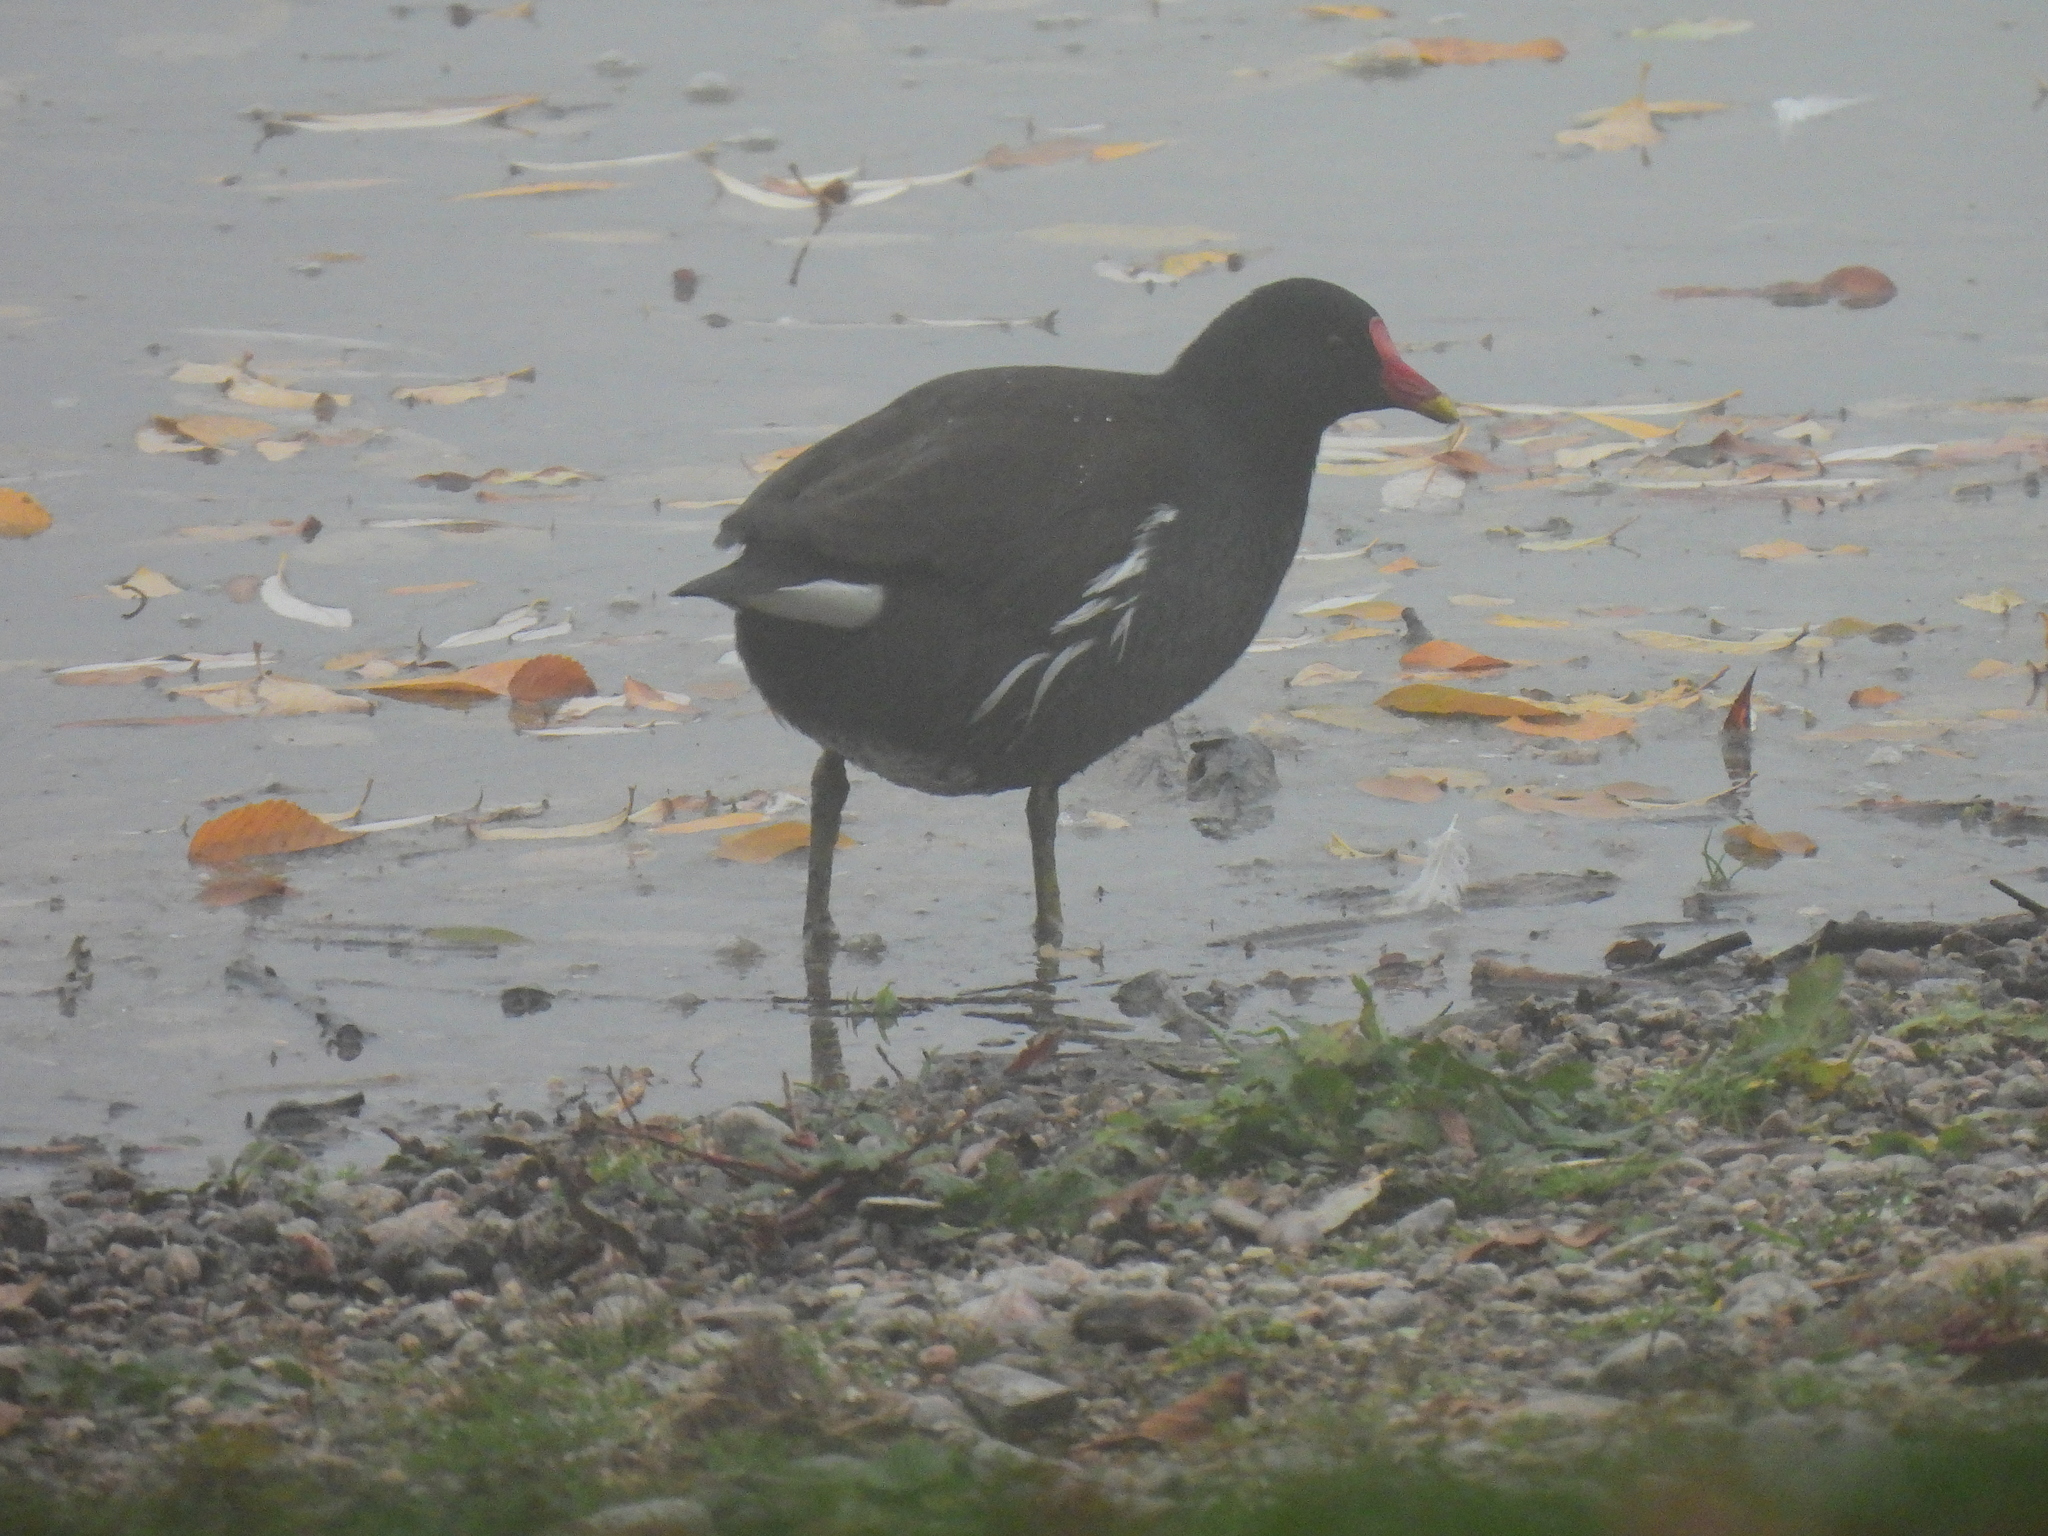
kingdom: Animalia
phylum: Chordata
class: Aves
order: Gruiformes
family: Rallidae
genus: Gallinula
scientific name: Gallinula chloropus
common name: Common moorhen
